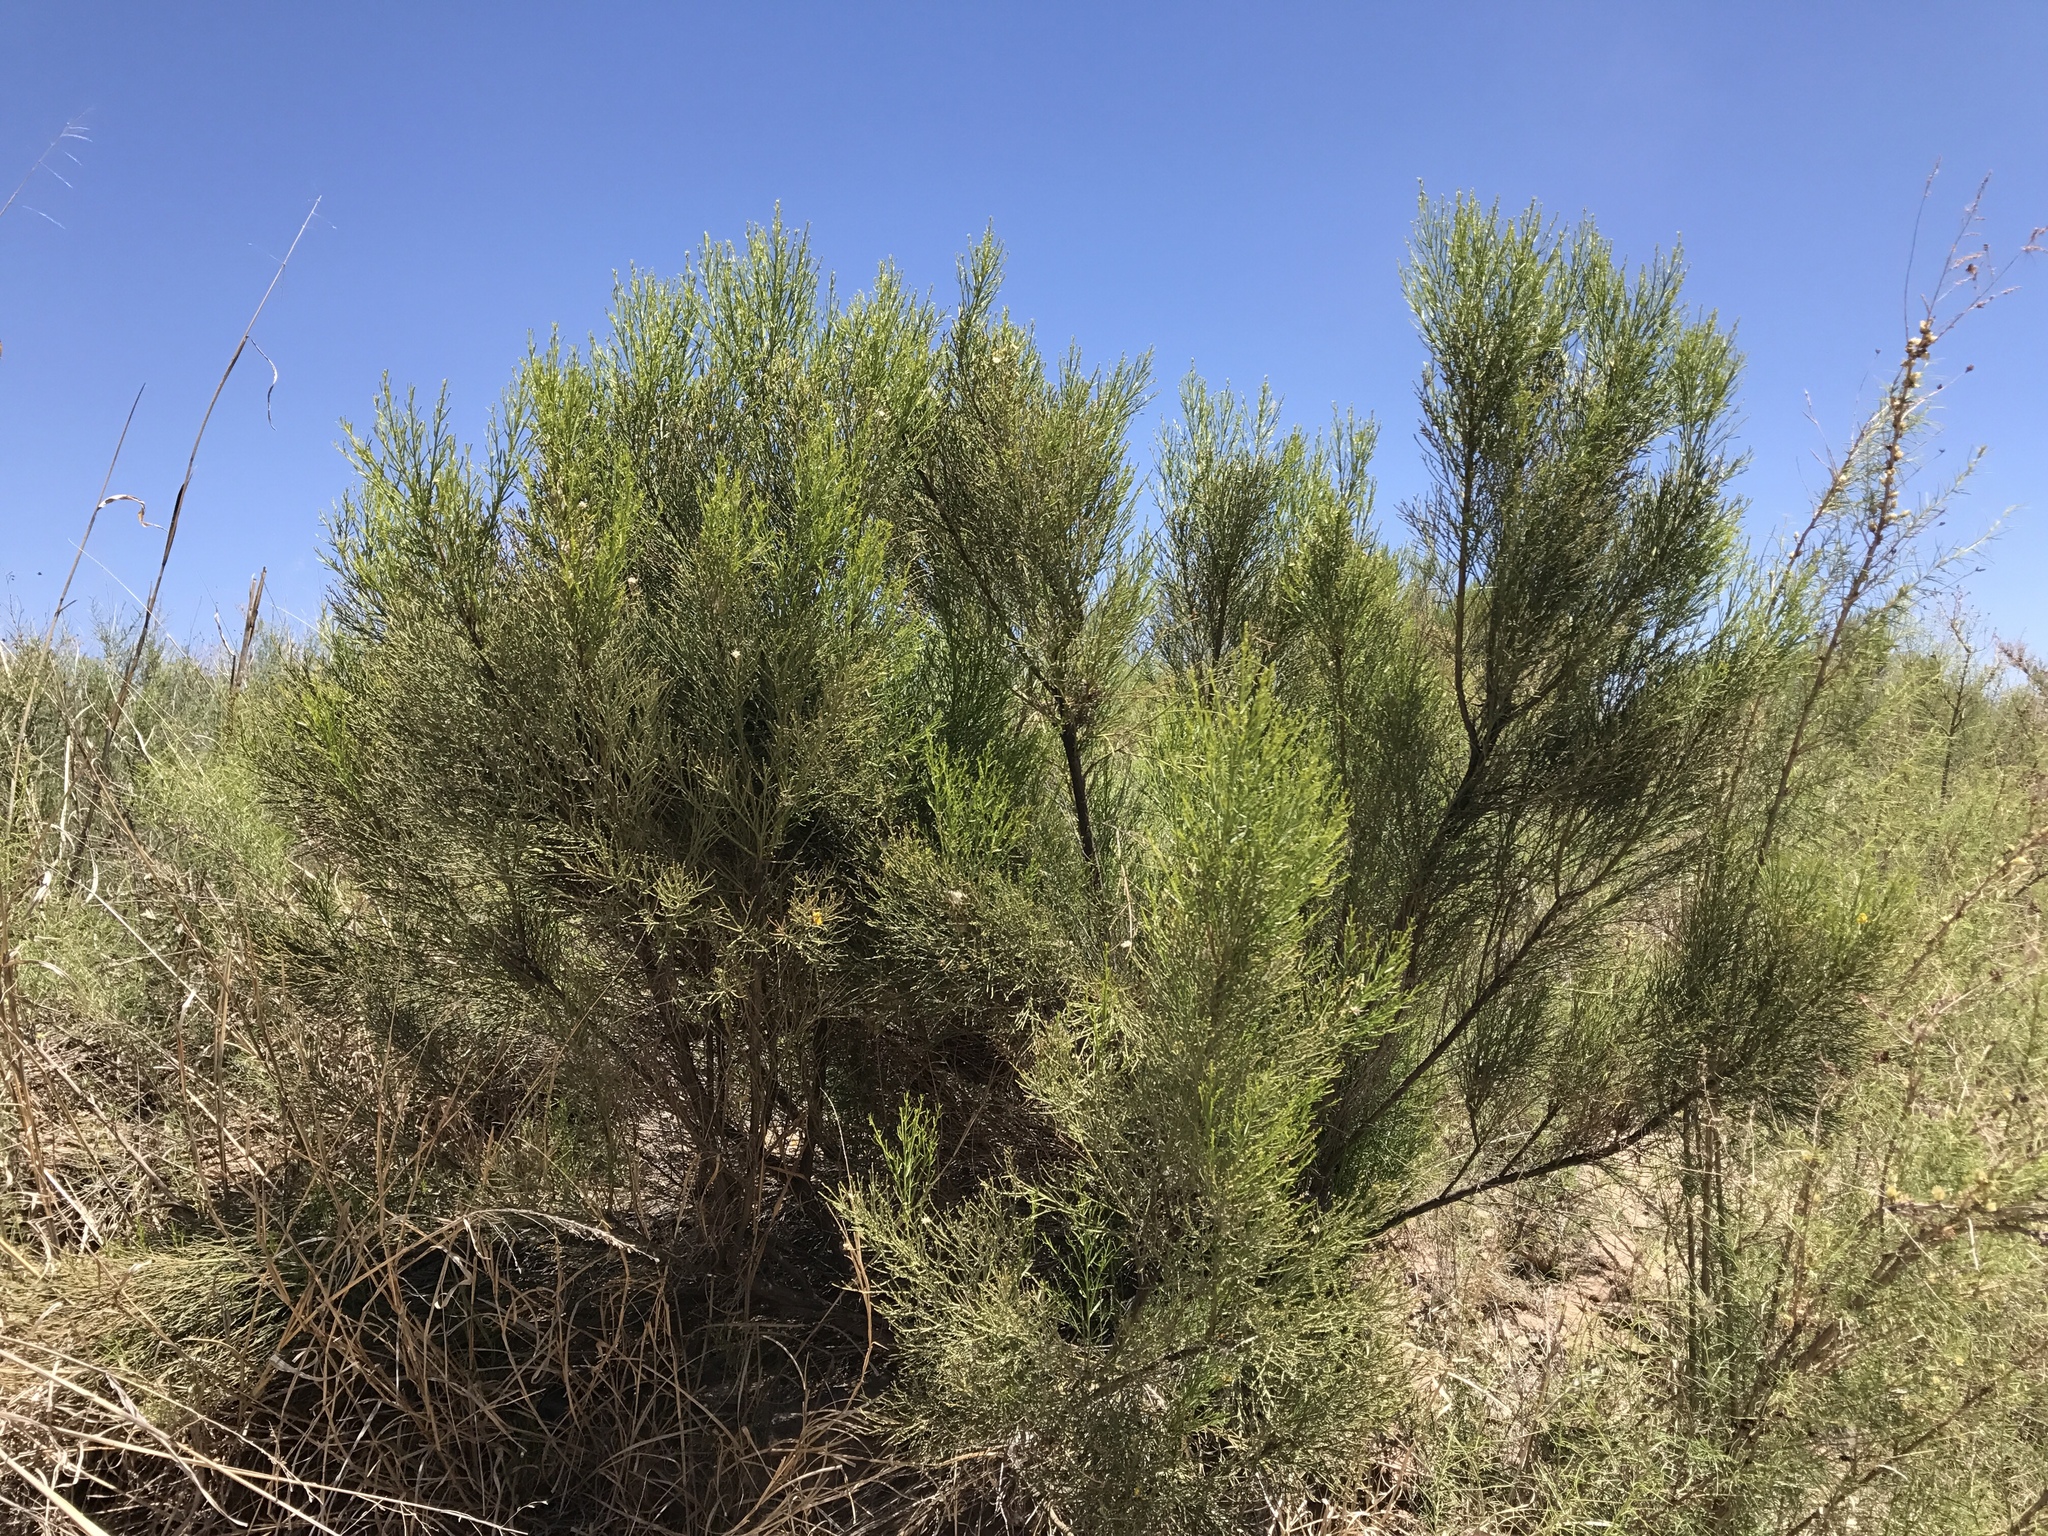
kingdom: Plantae
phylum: Tracheophyta
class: Magnoliopsida
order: Asterales
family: Asteraceae
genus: Baccharis
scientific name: Baccharis sarothroides
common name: Desert-broom
